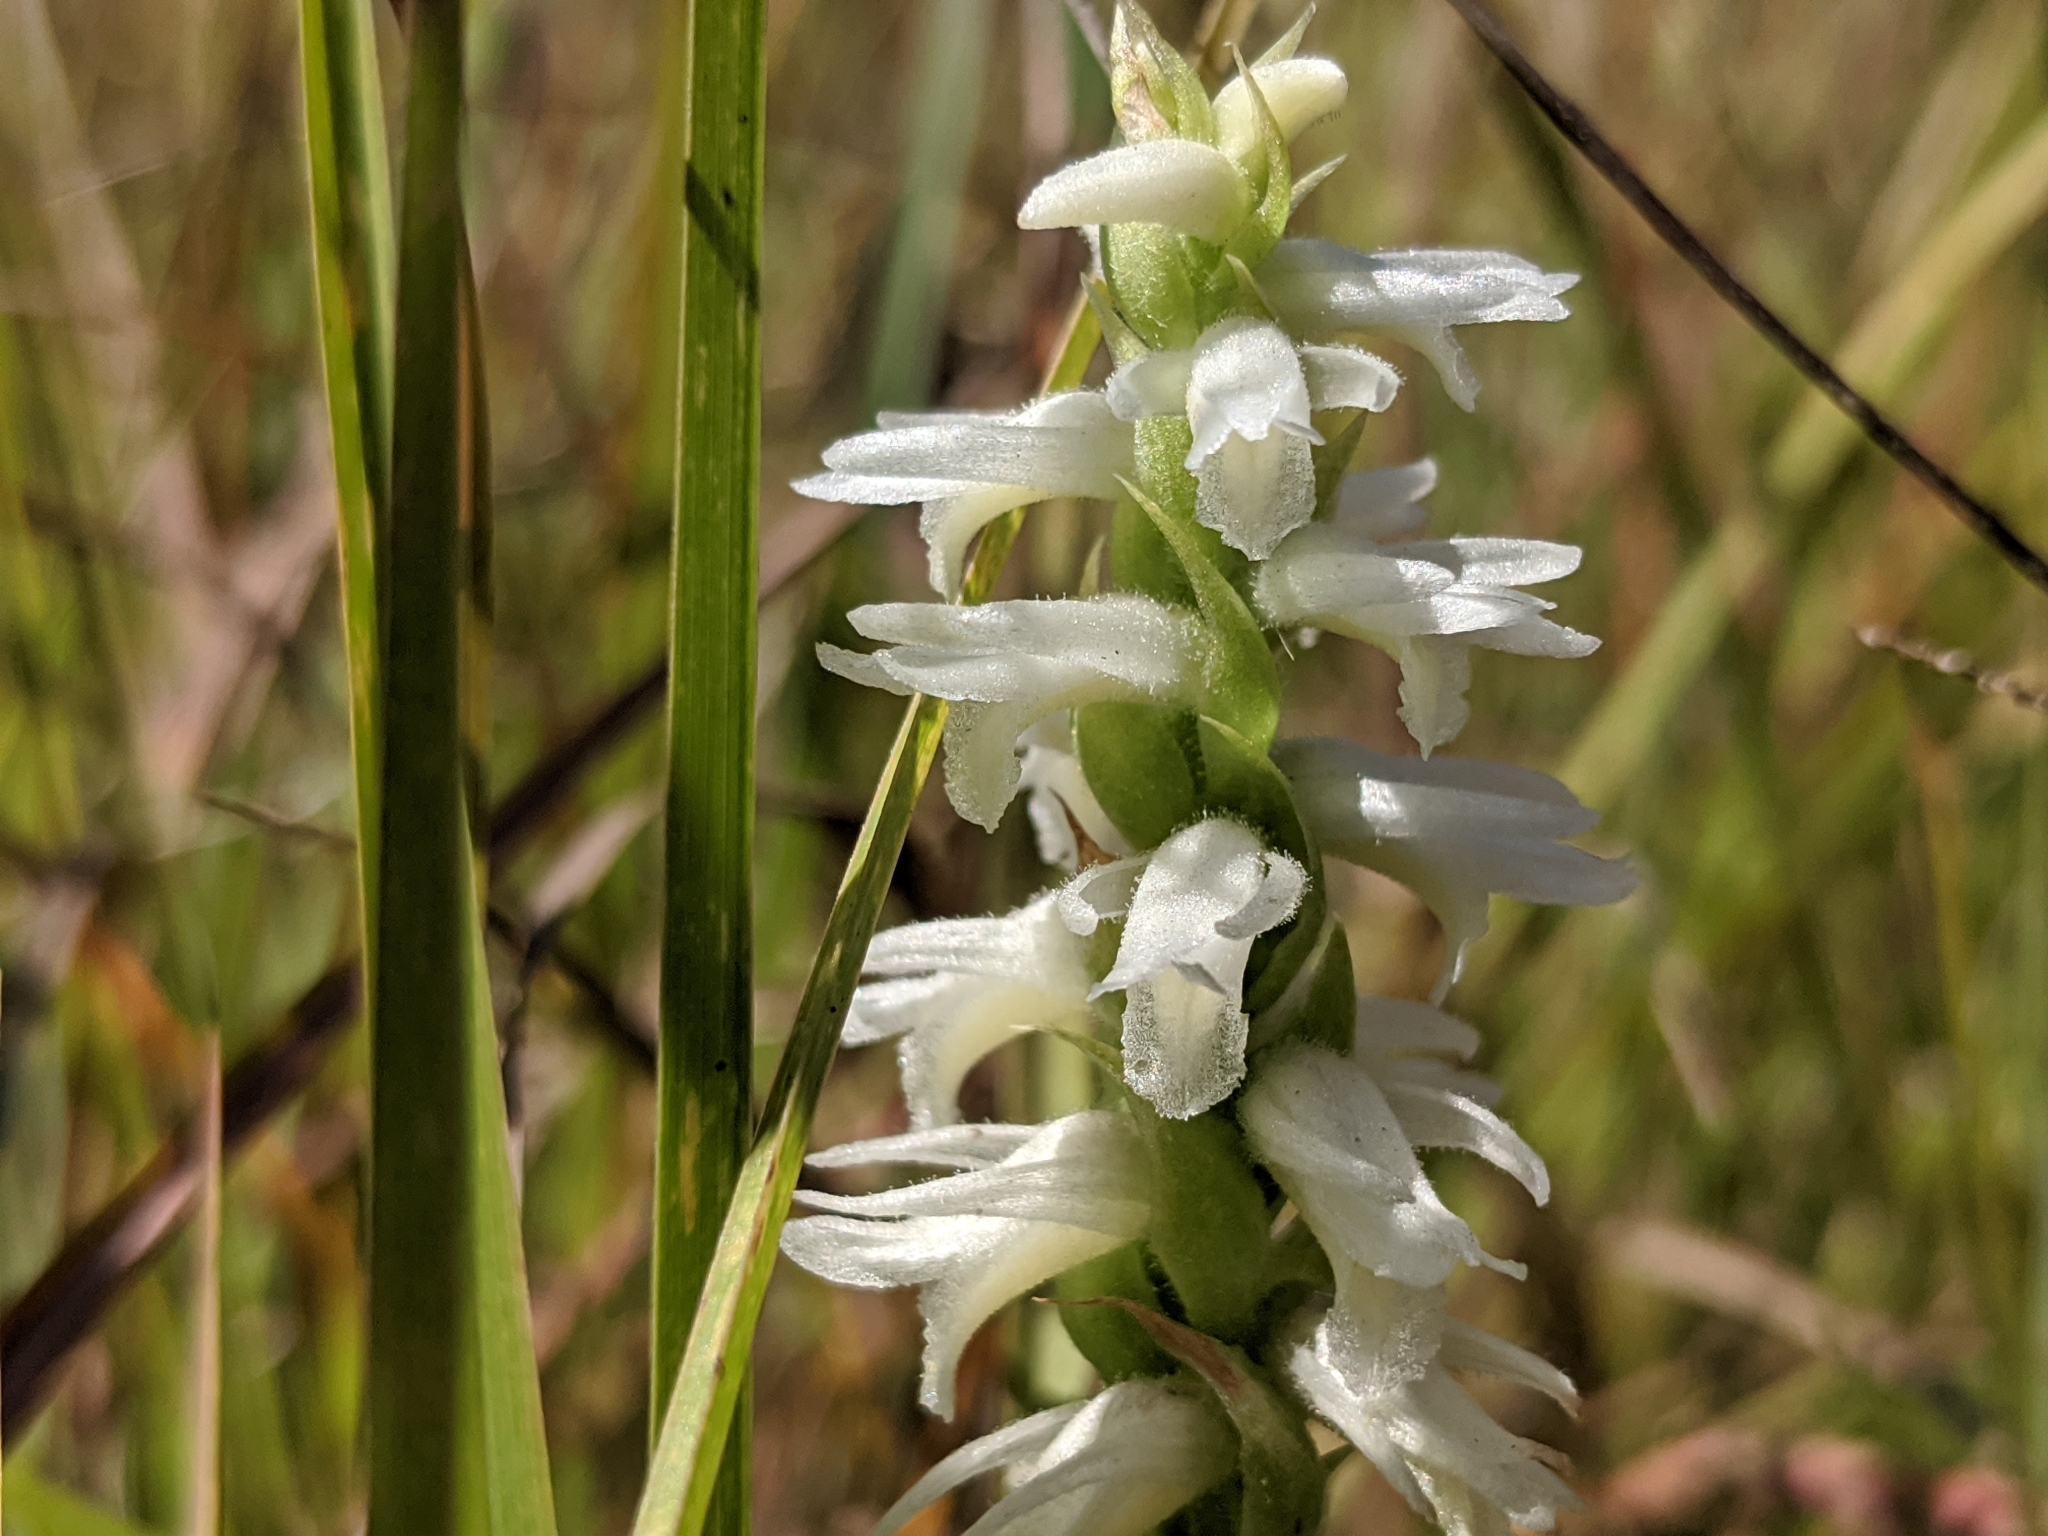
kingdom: Plantae
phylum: Tracheophyta
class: Liliopsida
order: Asparagales
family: Orchidaceae
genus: Spiranthes
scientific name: Spiranthes magnicamporum
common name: Great plains ladies'-tresses
